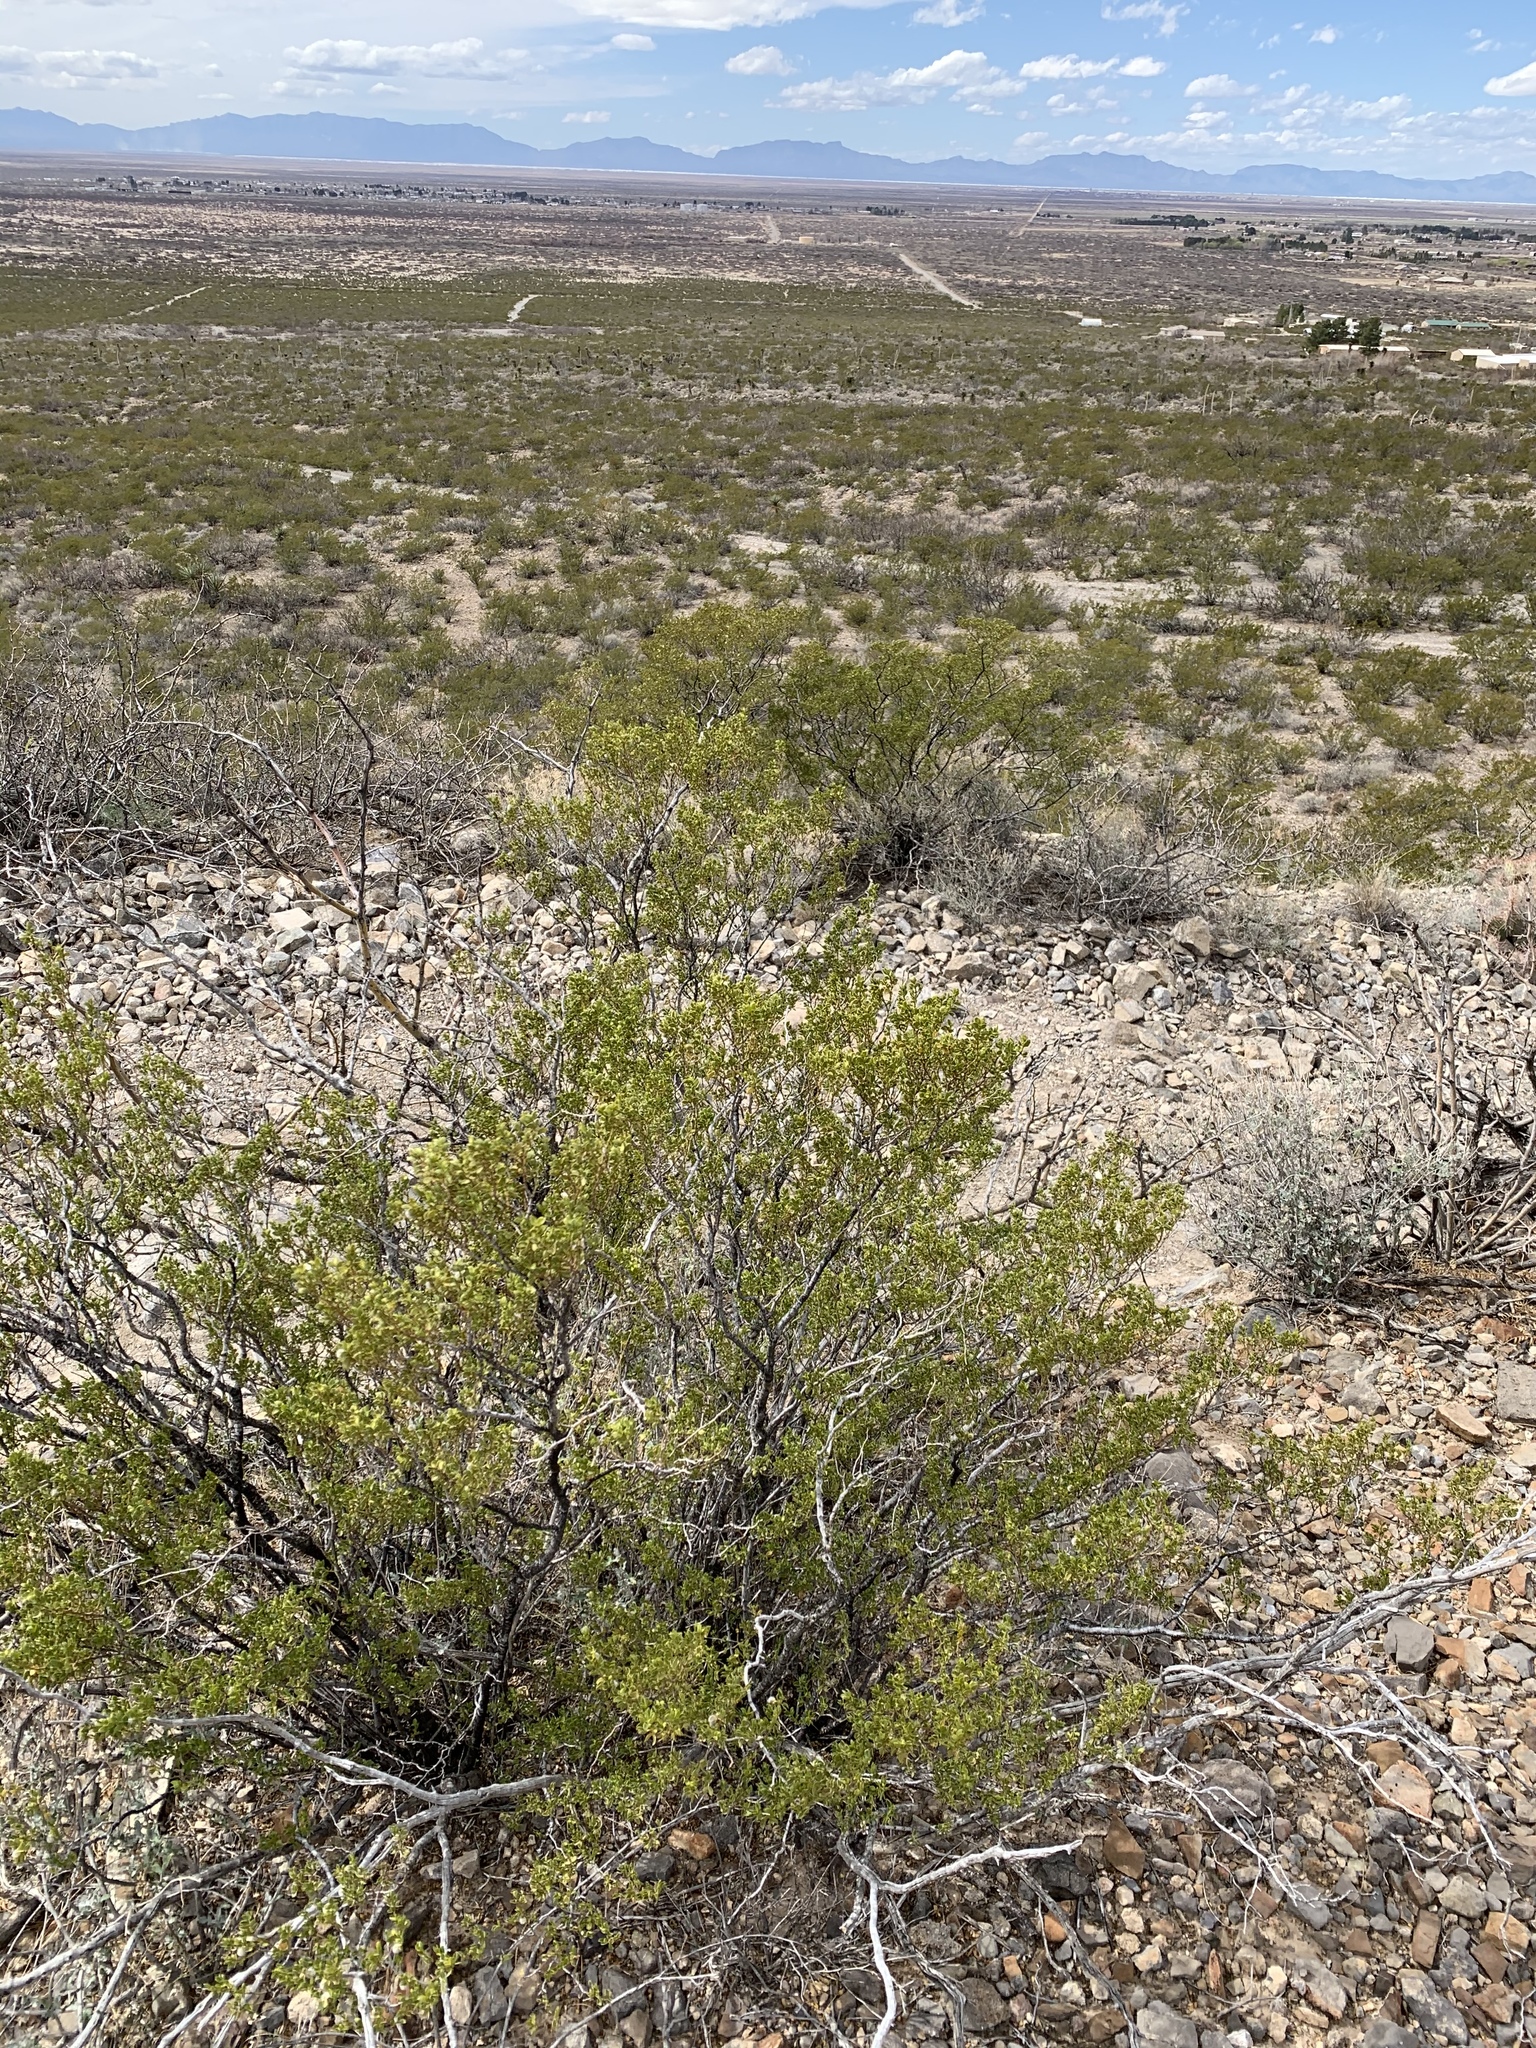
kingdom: Plantae
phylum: Tracheophyta
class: Magnoliopsida
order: Zygophyllales
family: Zygophyllaceae
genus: Larrea
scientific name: Larrea tridentata
